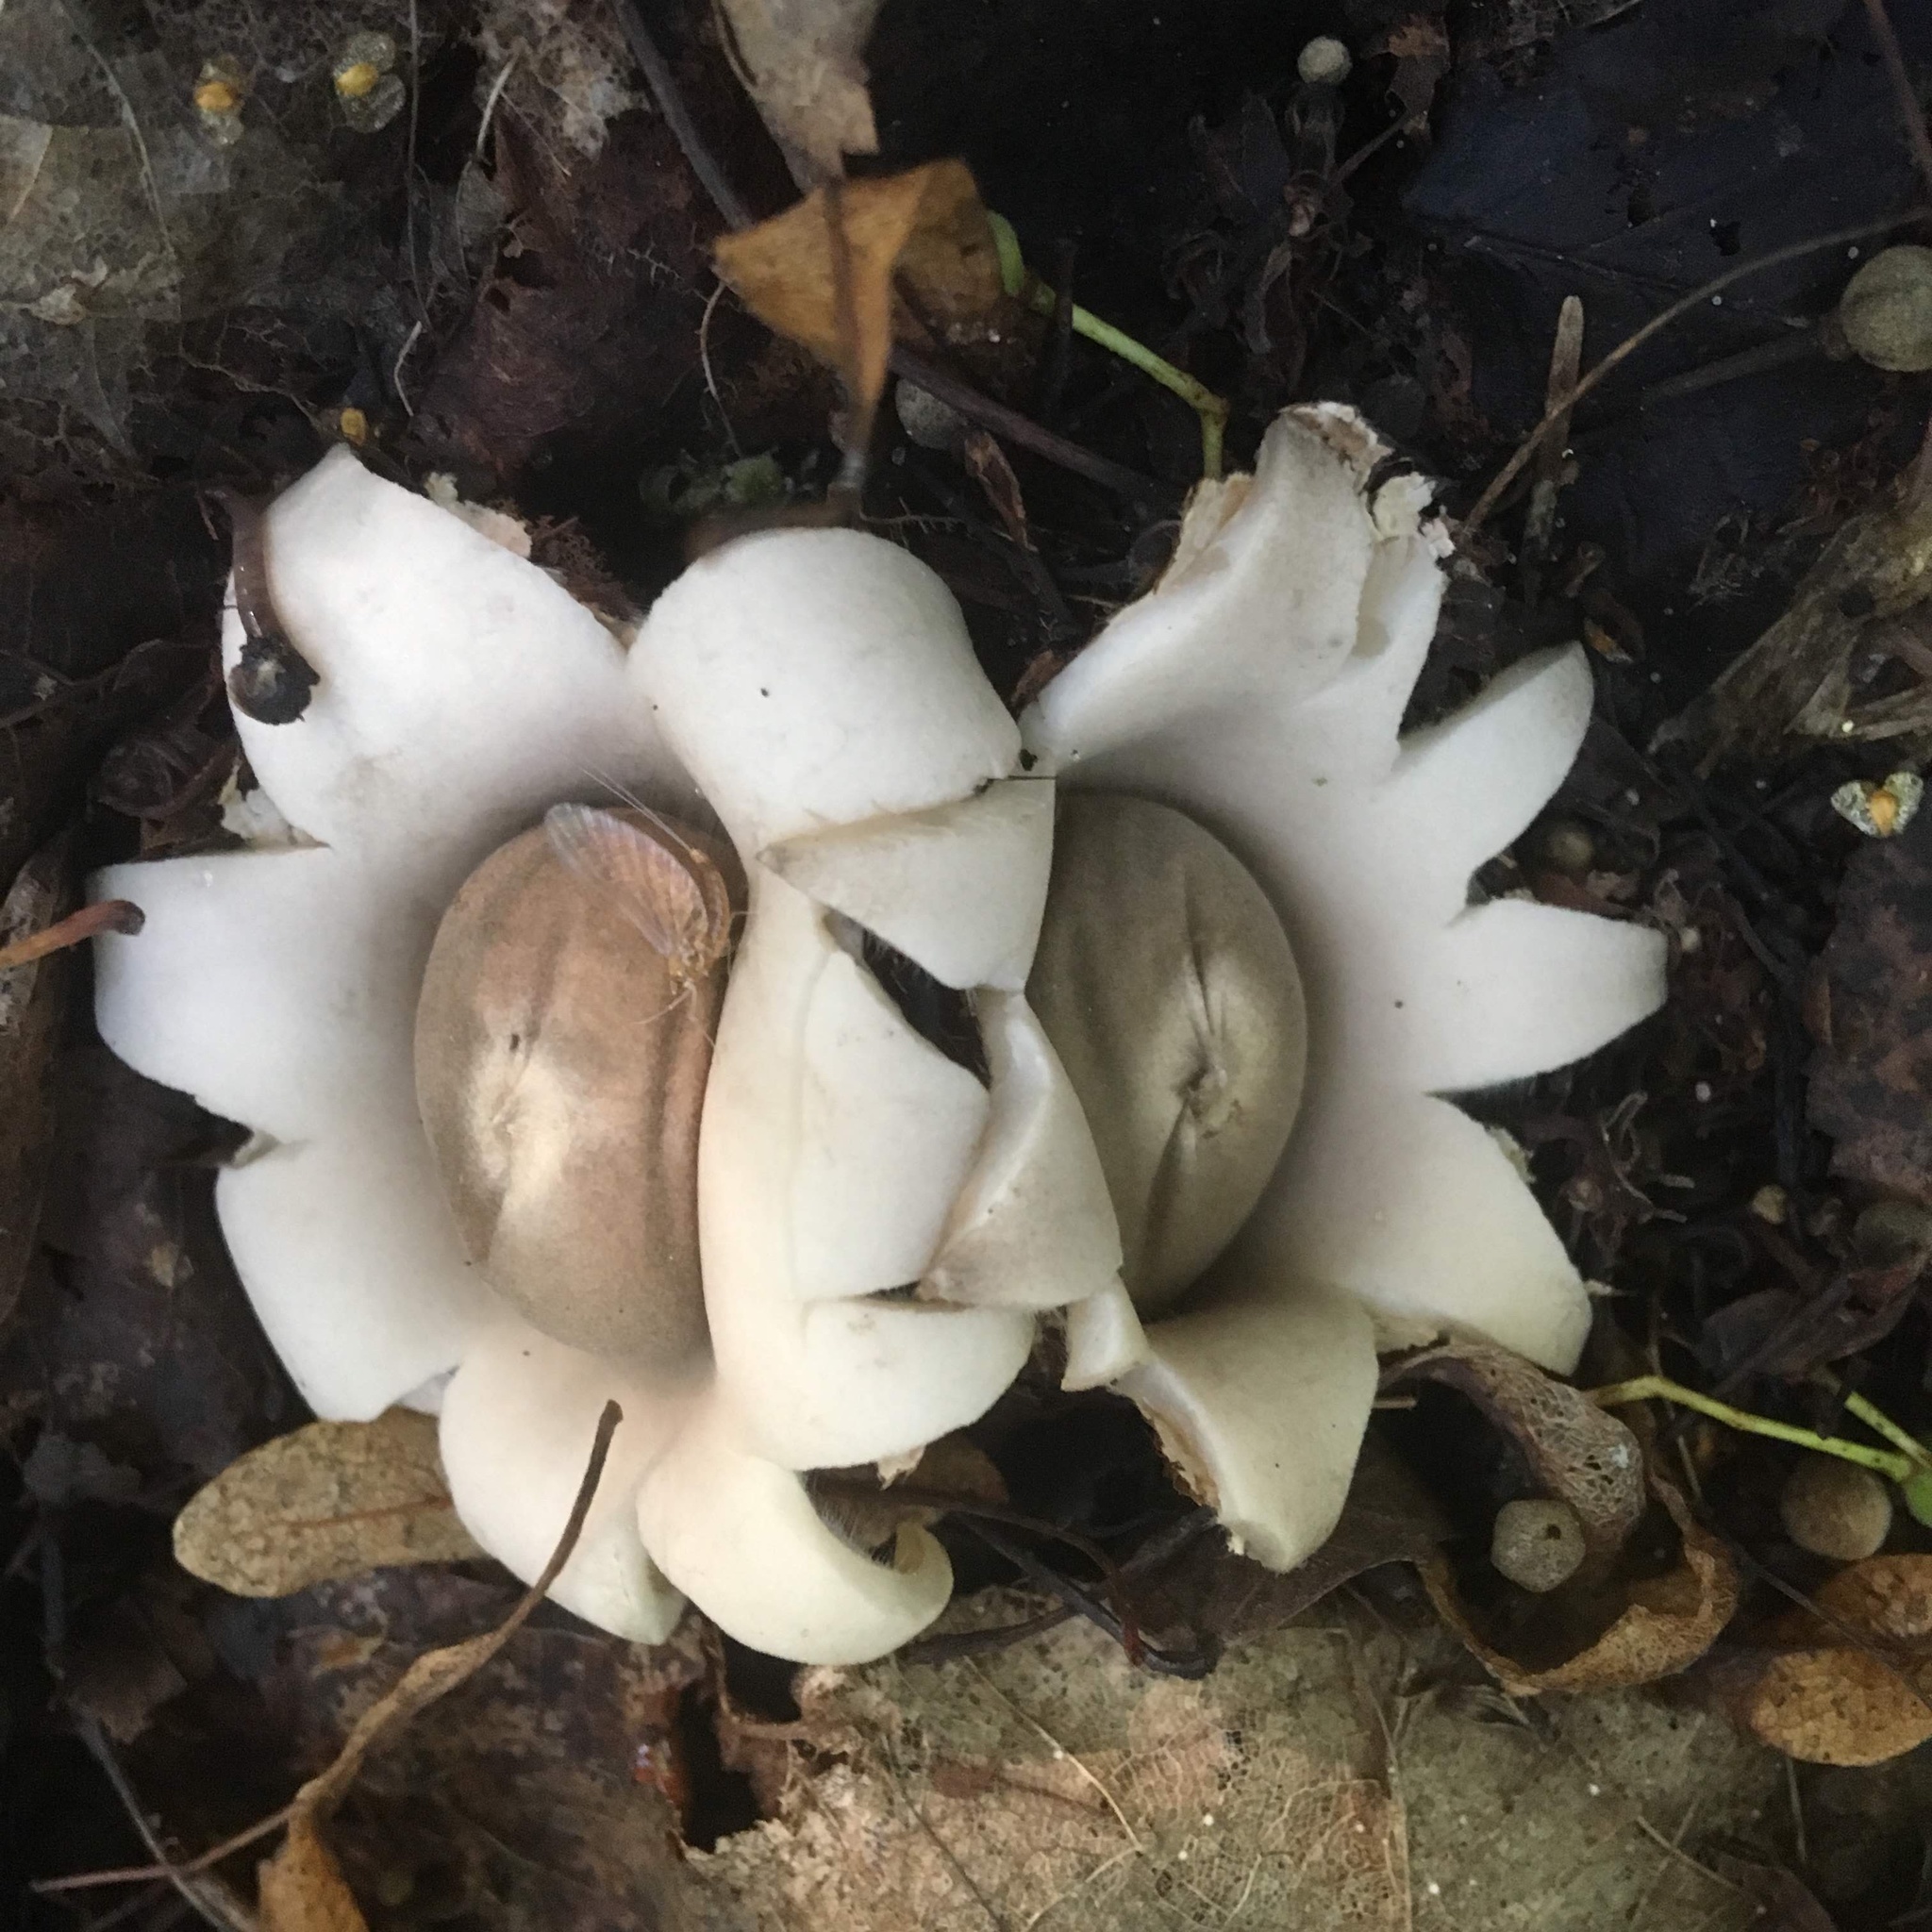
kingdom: Fungi
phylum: Basidiomycota
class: Agaricomycetes
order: Geastrales
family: Geastraceae
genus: Geastrum
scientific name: Geastrum fimbriatum
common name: Sessile earthstar
